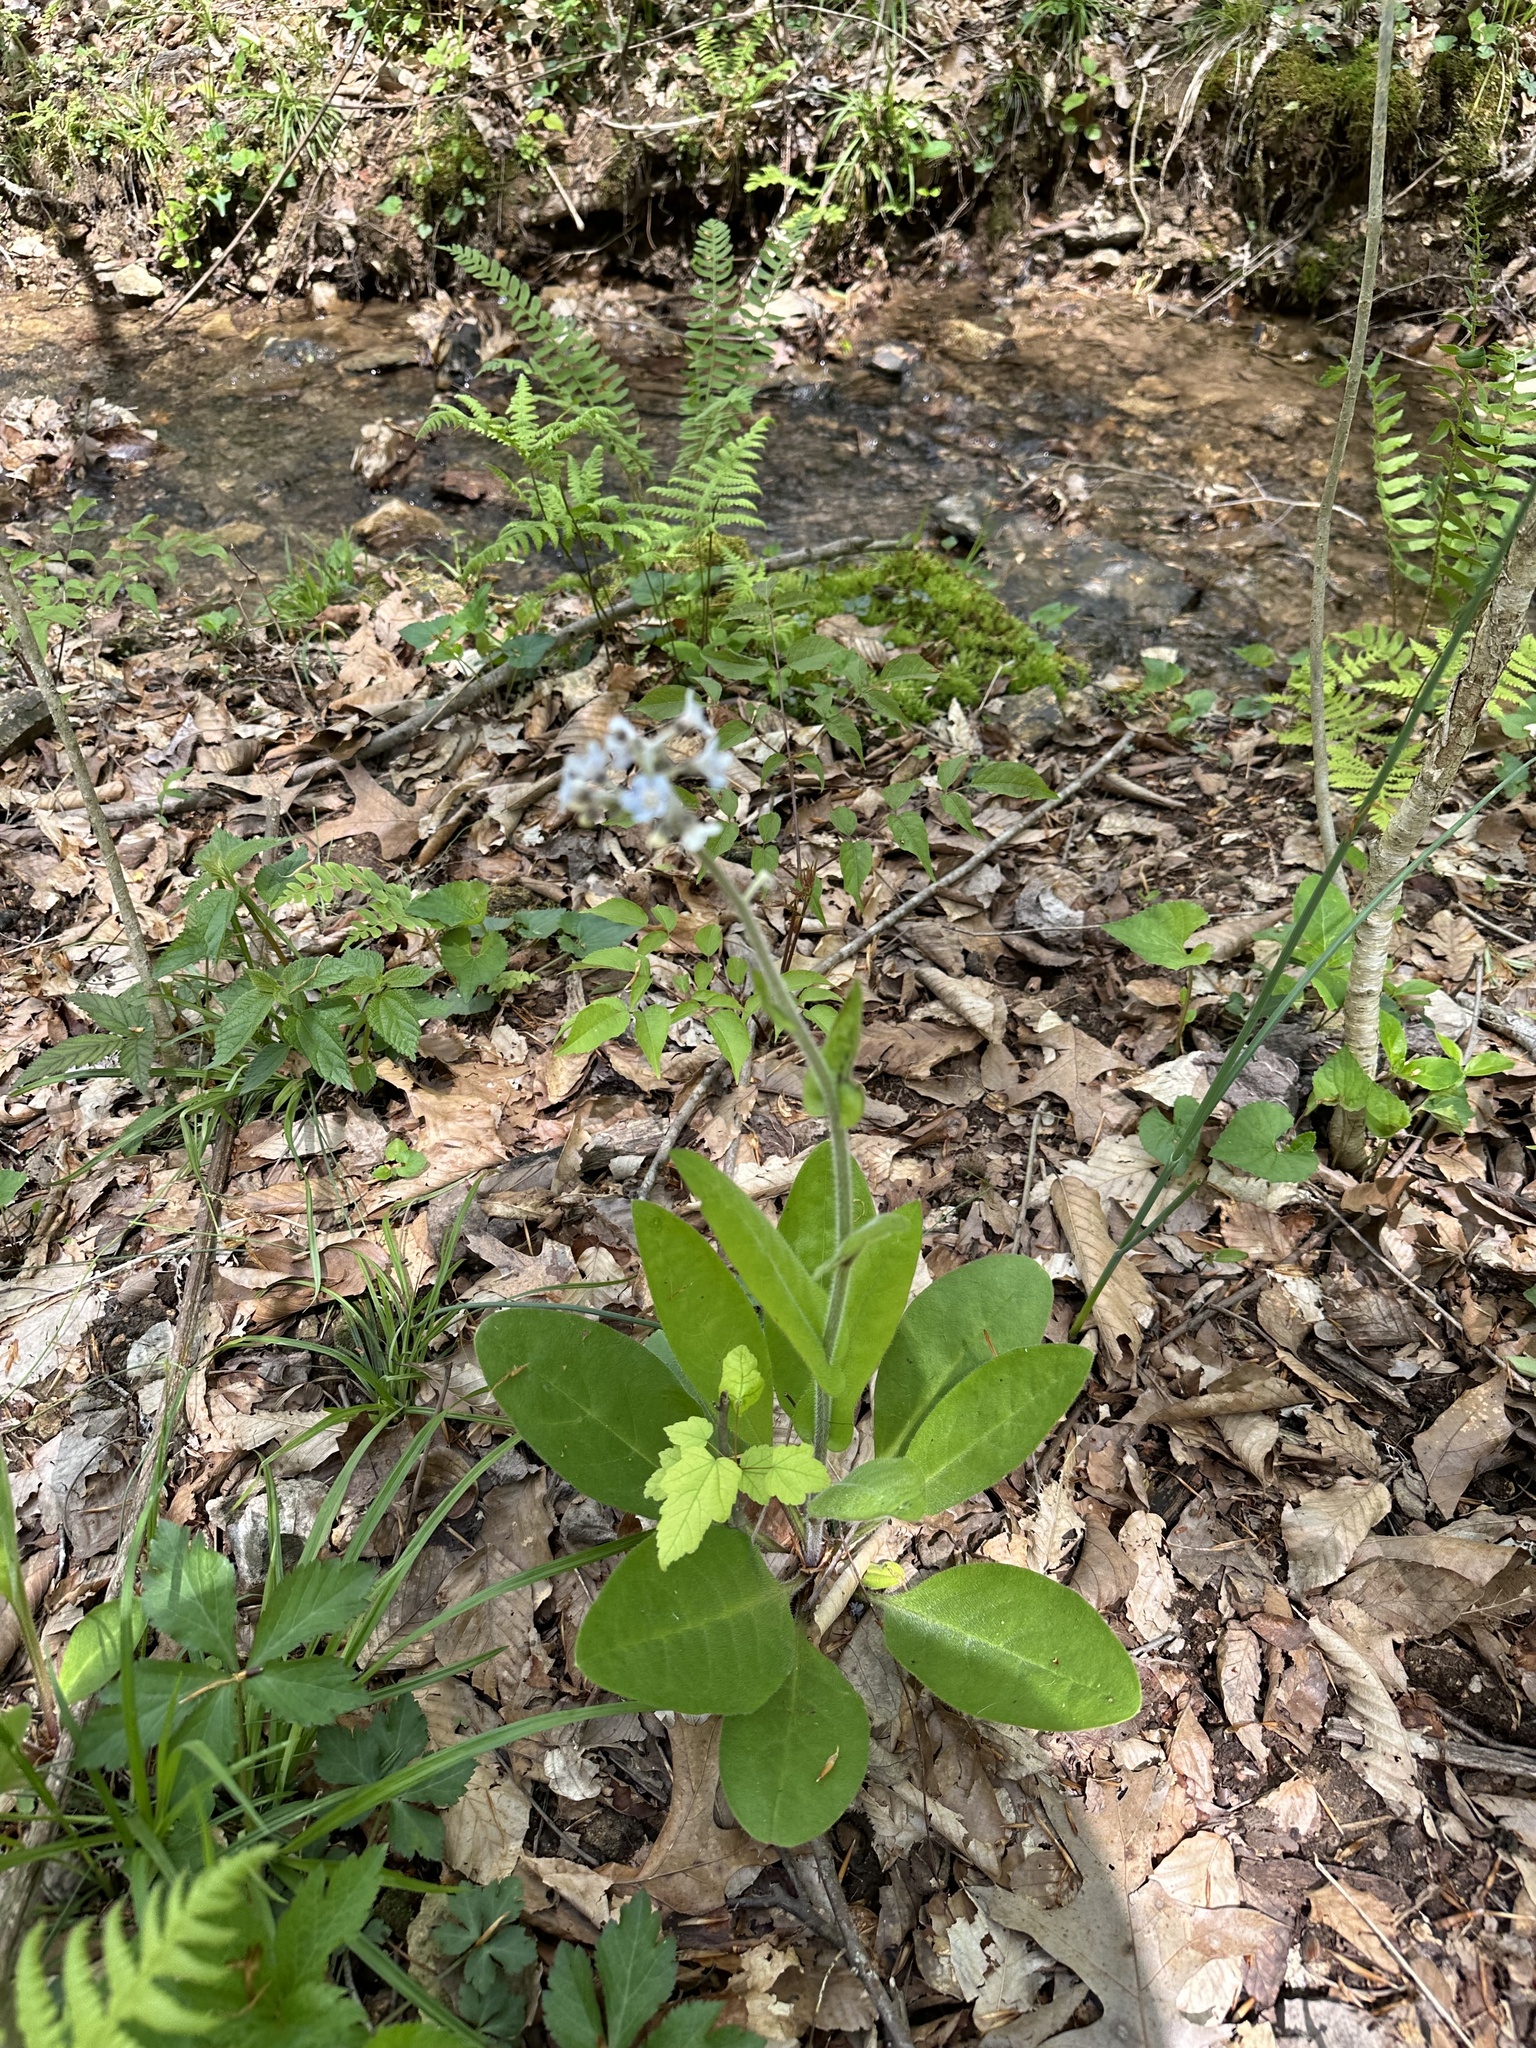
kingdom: Plantae
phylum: Tracheophyta
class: Magnoliopsida
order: Boraginales
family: Boraginaceae
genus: Andersonglossum
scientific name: Andersonglossum virginianum
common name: Wild comfrey
